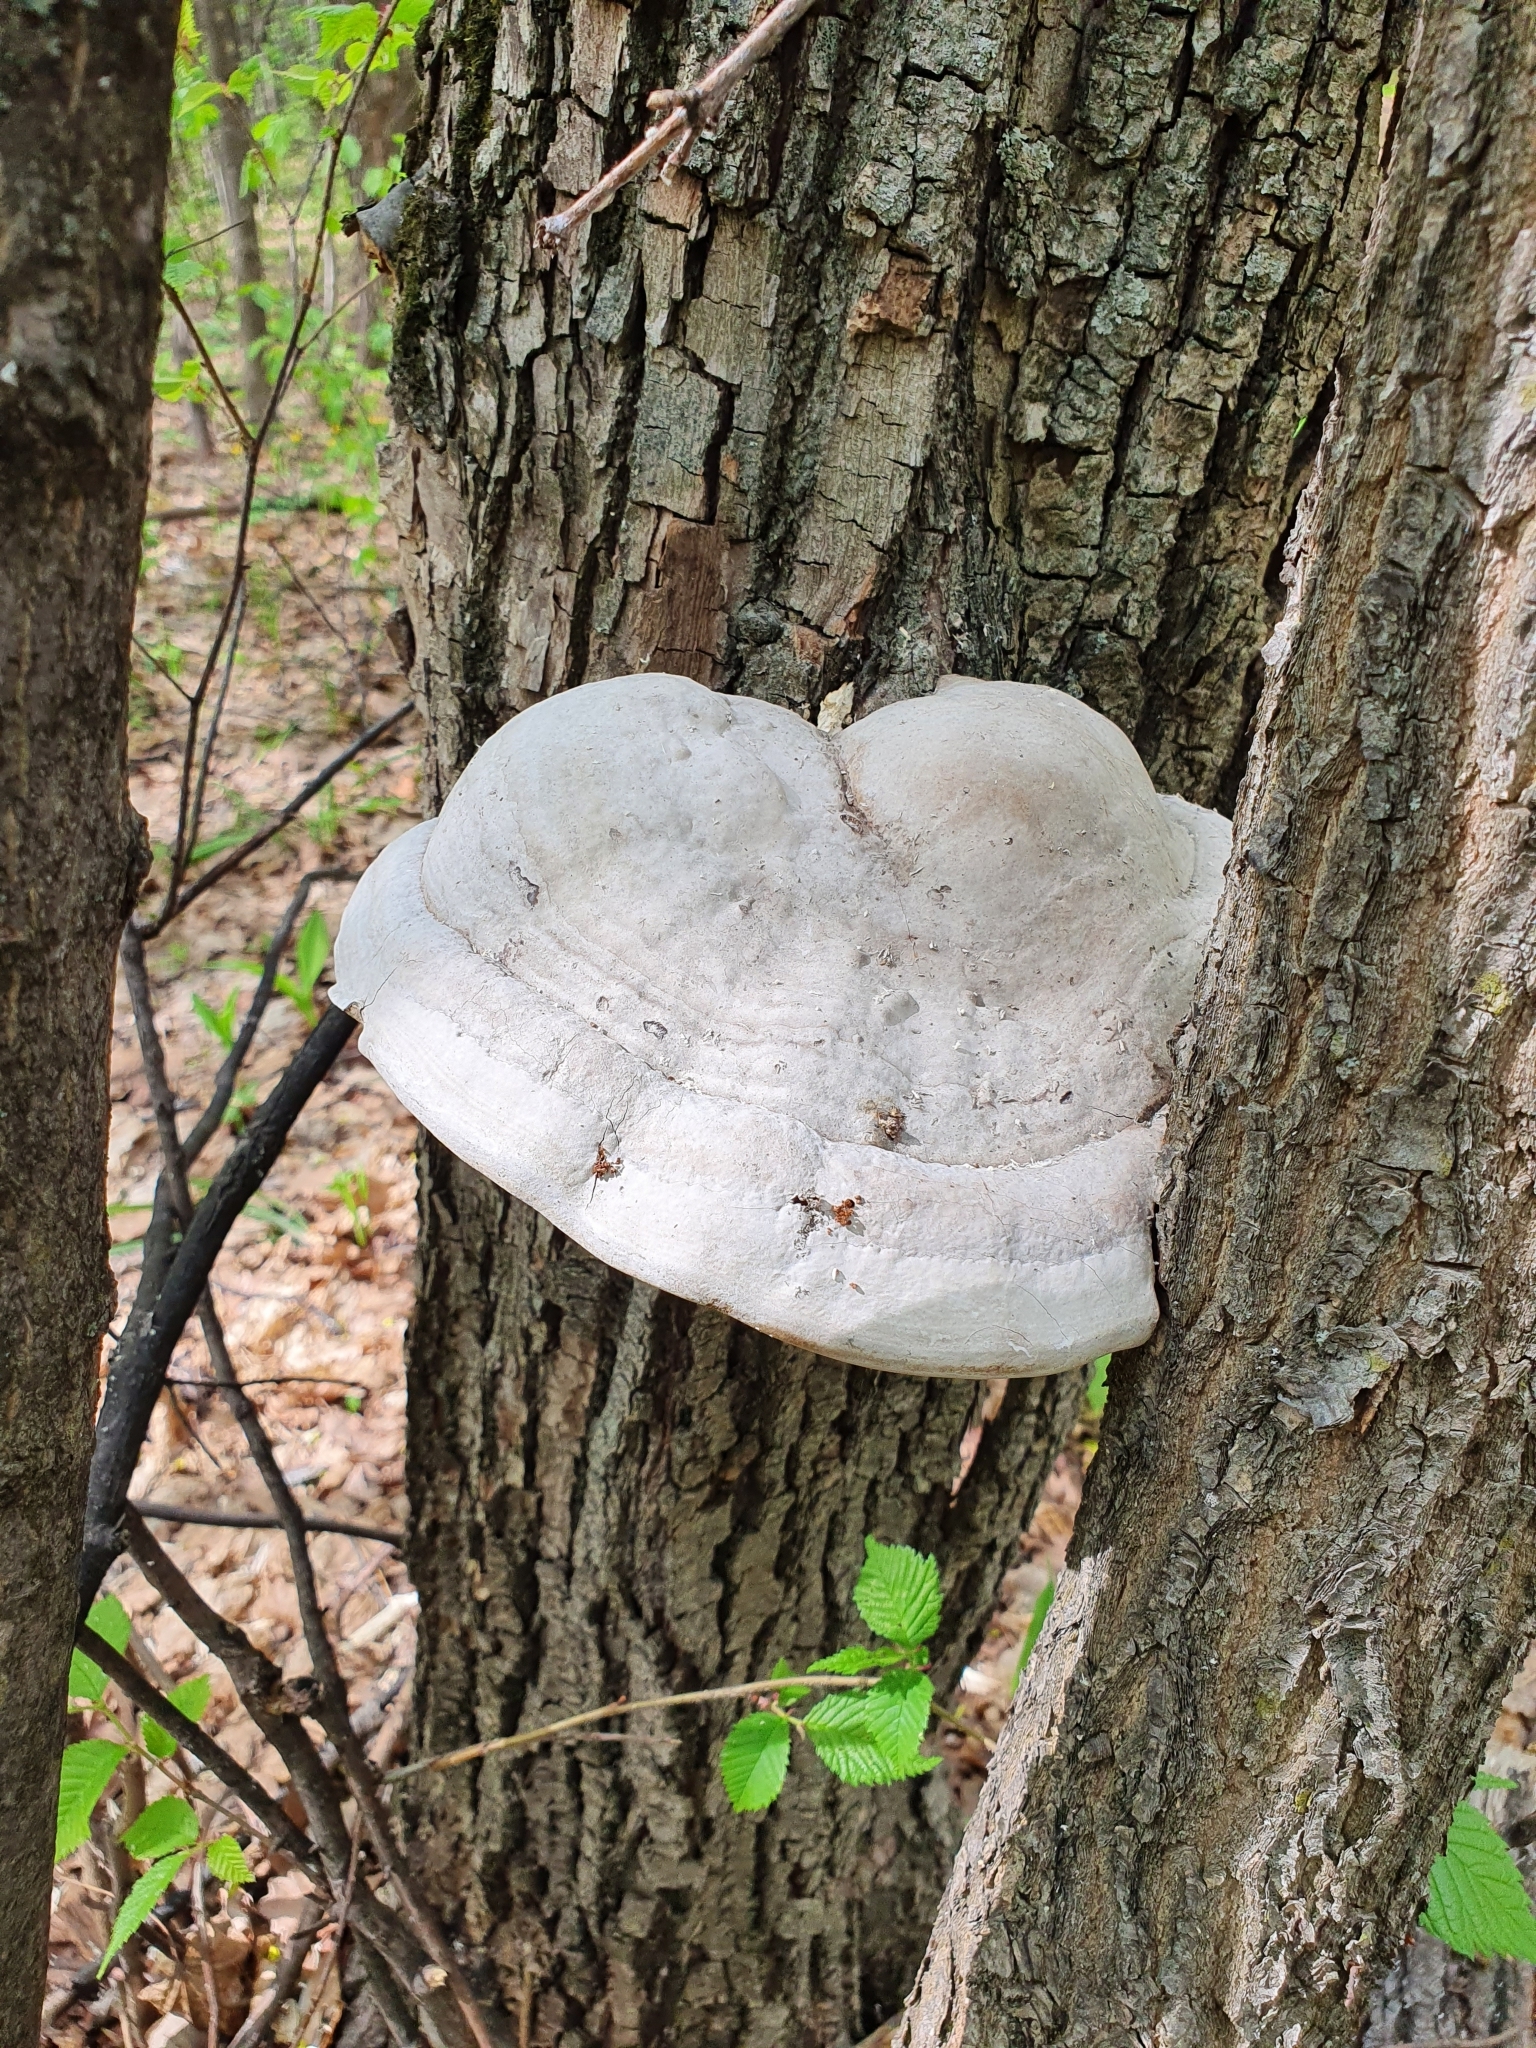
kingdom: Fungi
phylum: Basidiomycota
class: Agaricomycetes
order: Polyporales
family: Polyporaceae
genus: Fomes
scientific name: Fomes fomentarius
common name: Hoof fungus
